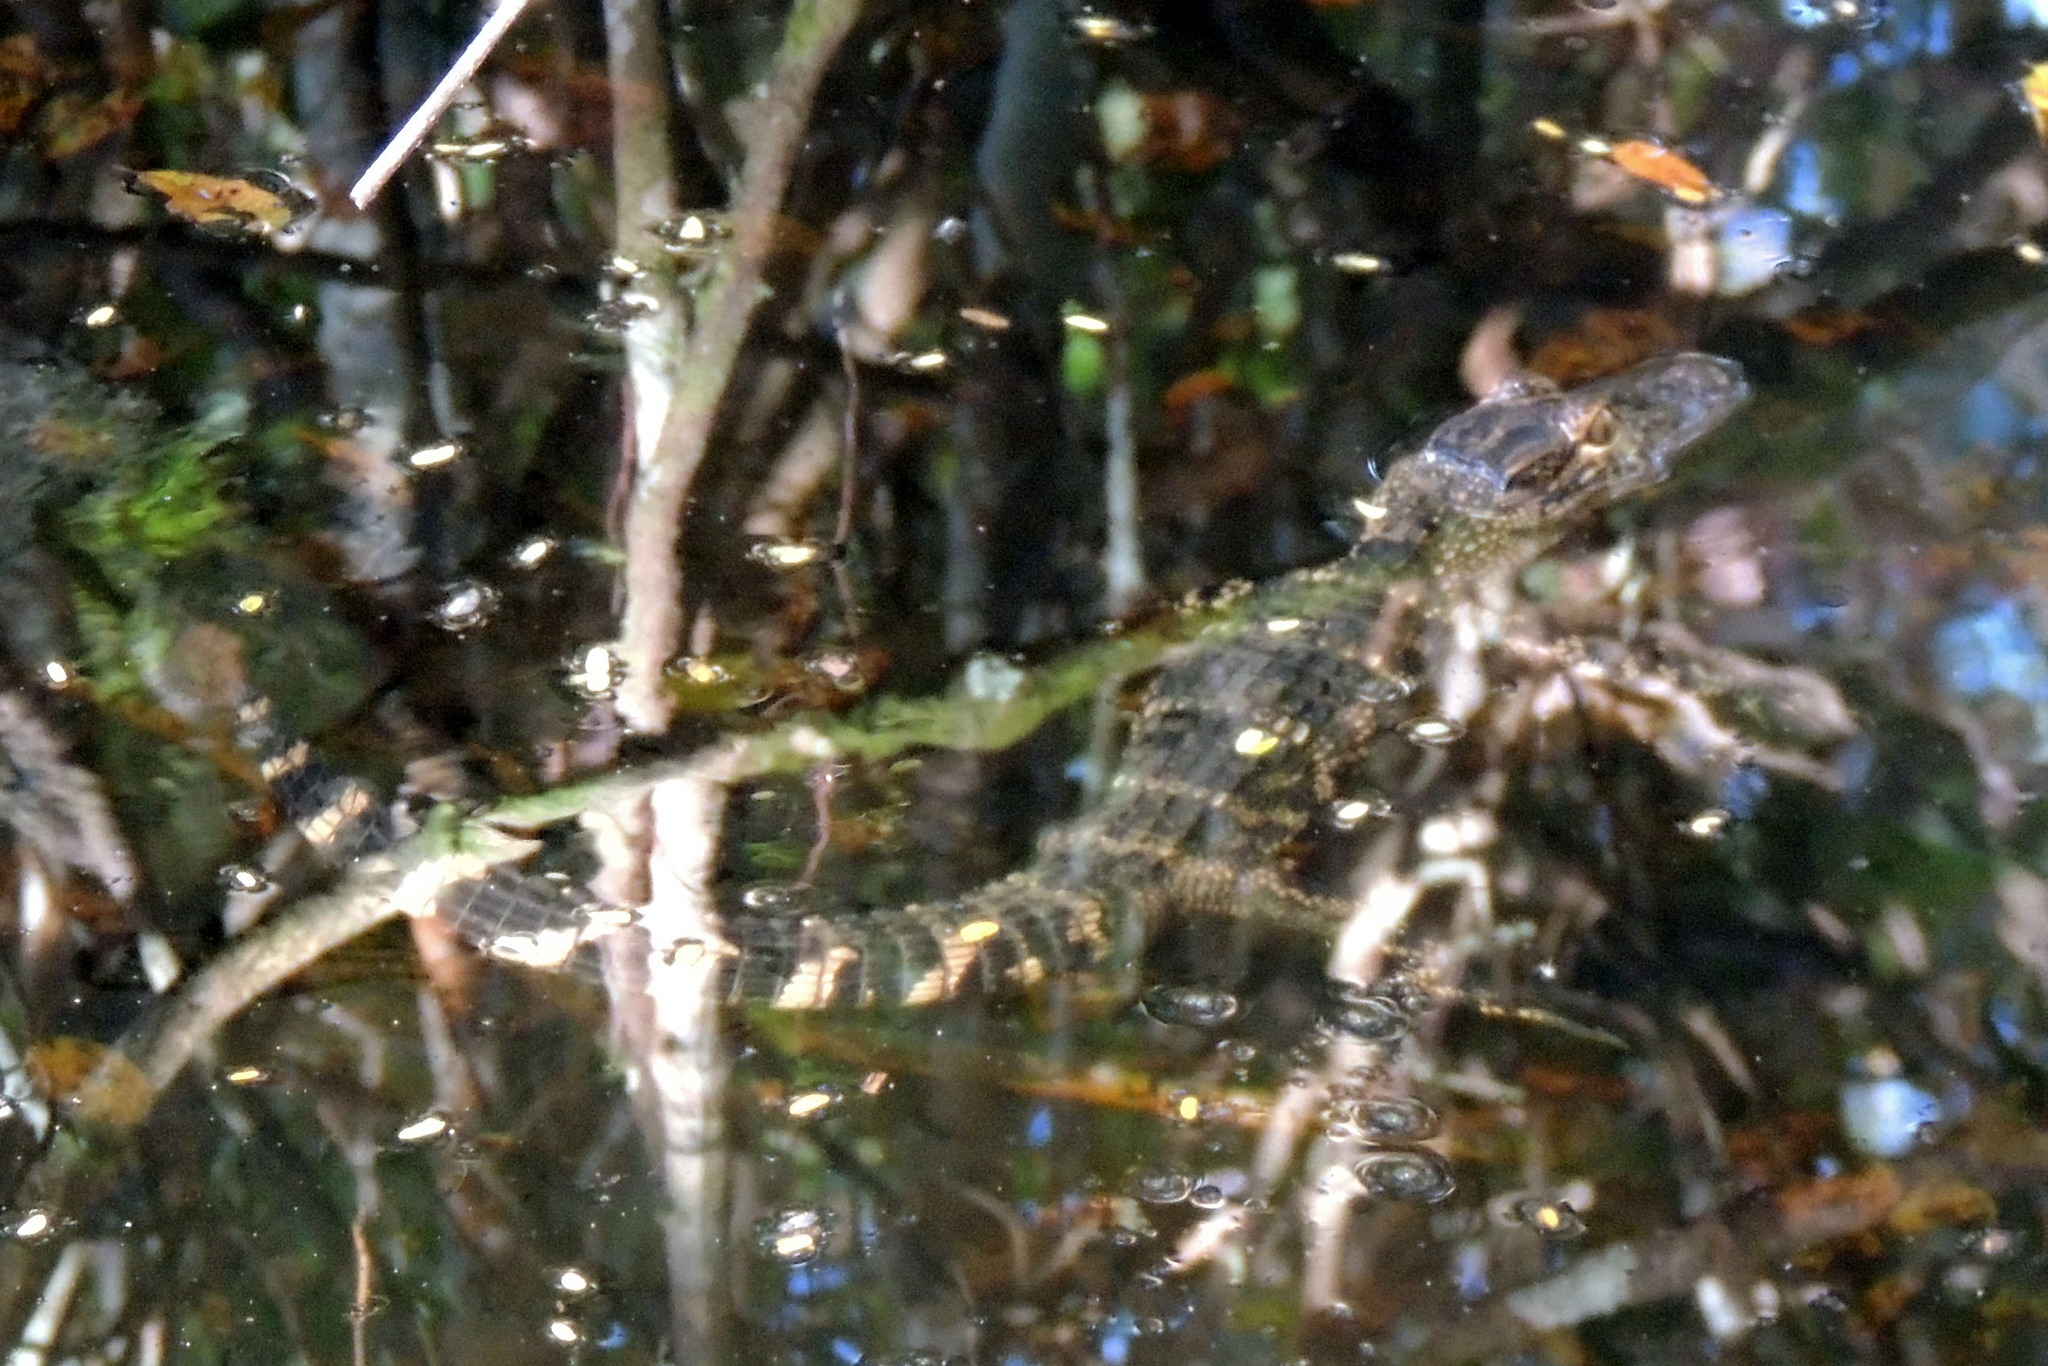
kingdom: Animalia
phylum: Chordata
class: Crocodylia
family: Alligatoridae
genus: Alligator
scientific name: Alligator mississippiensis
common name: American alligator
